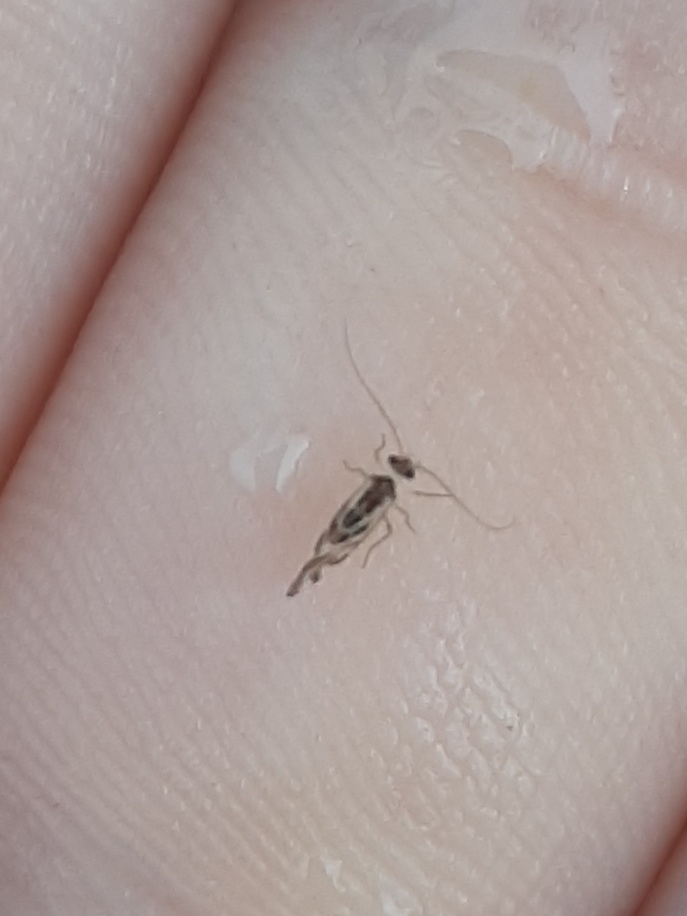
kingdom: Animalia
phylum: Arthropoda
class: Insecta
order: Psocodea
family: Stenopsocidae
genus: Graphopsocus
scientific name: Graphopsocus cruciatus
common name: Lizard bark louse
